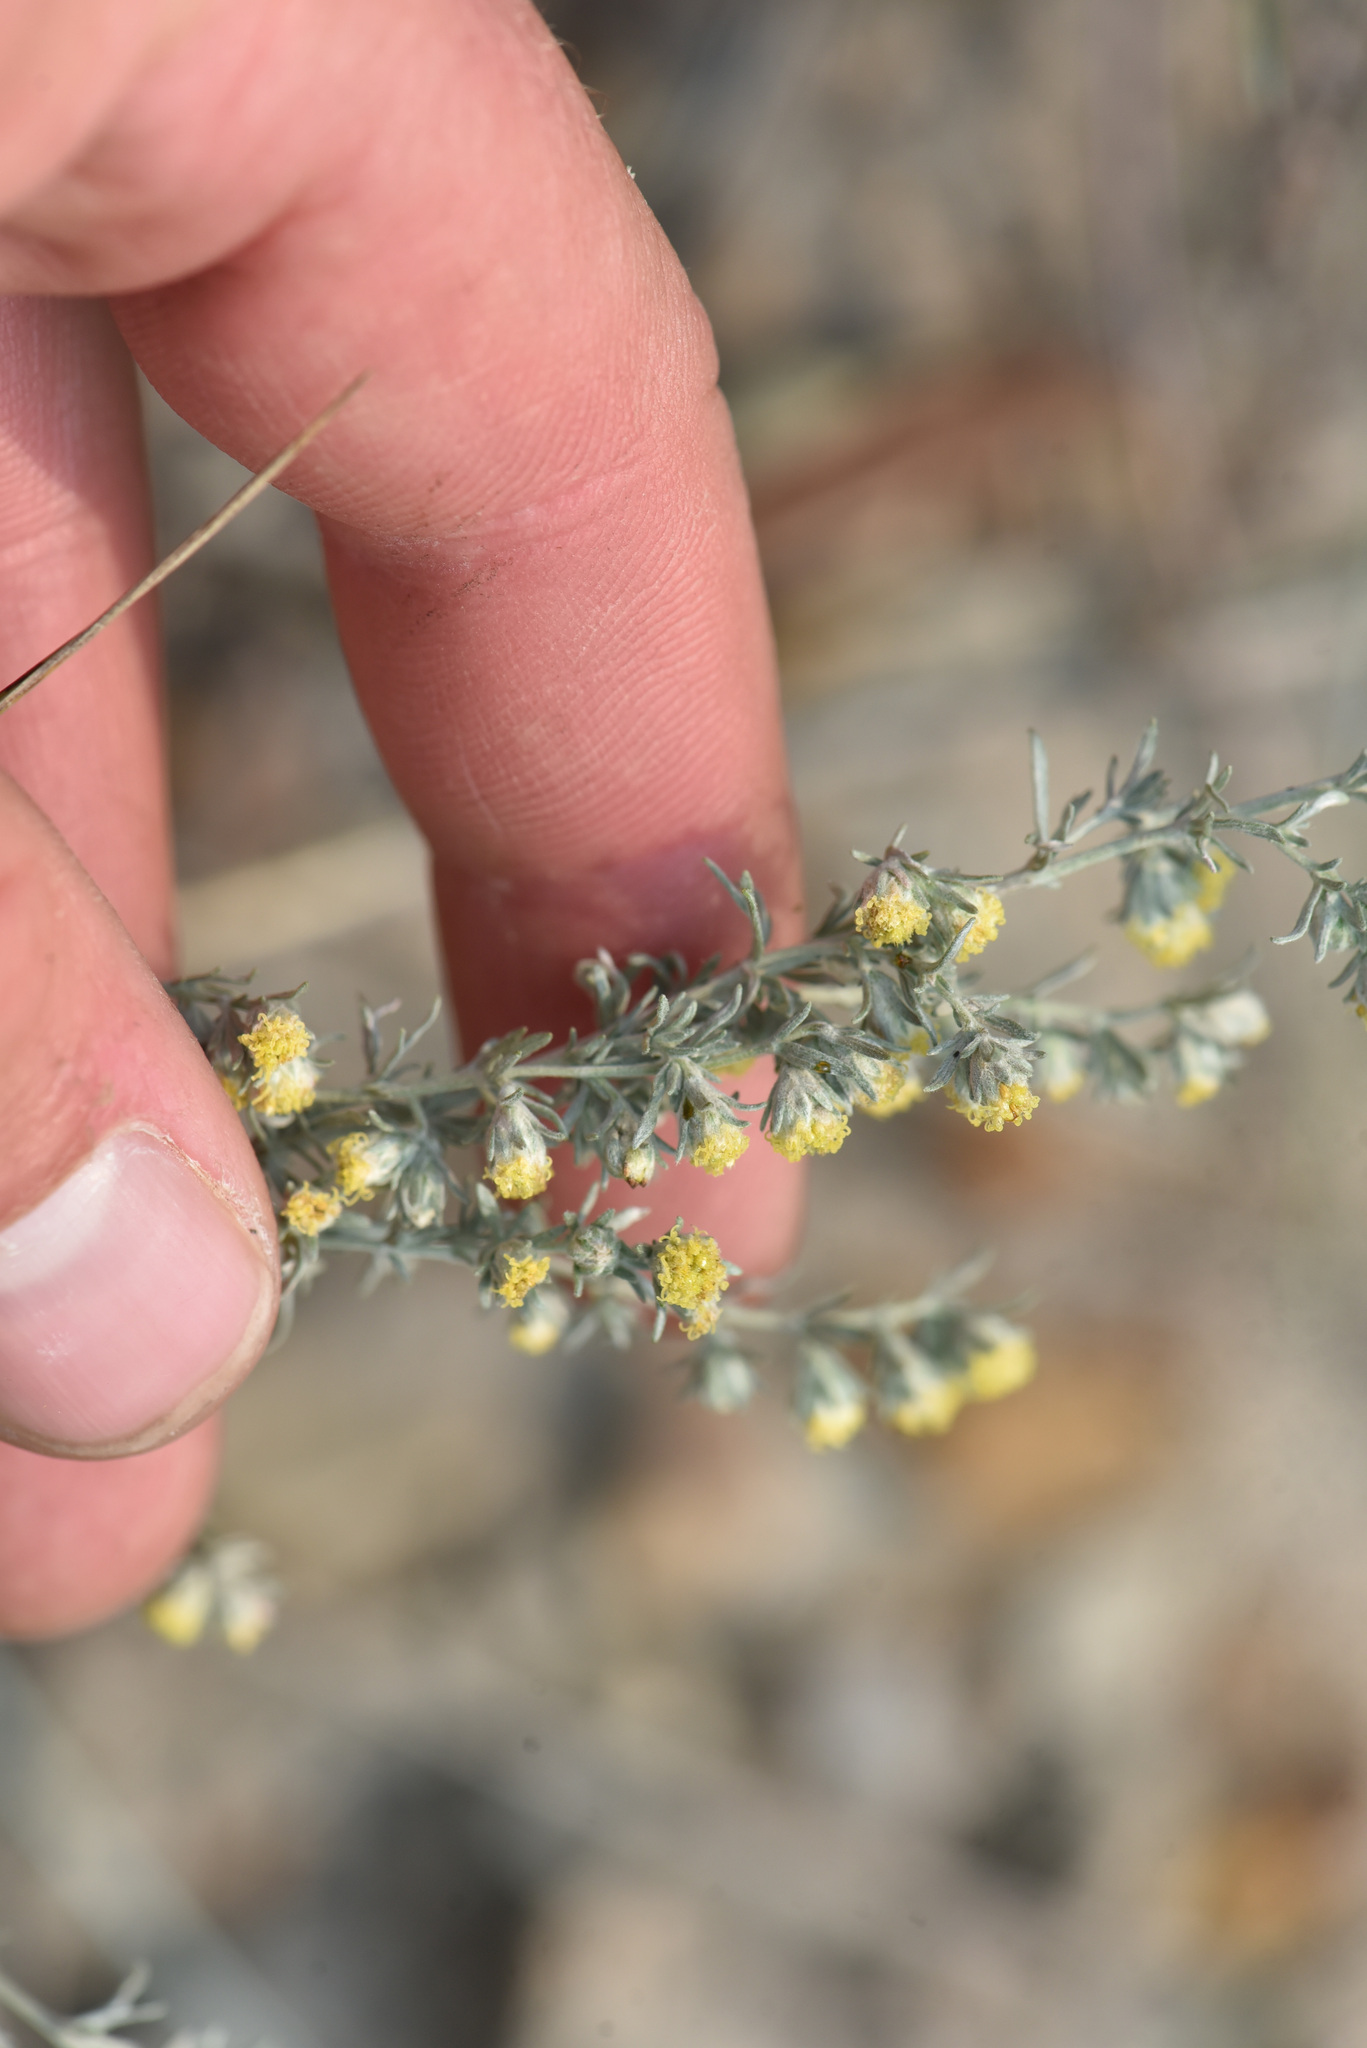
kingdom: Plantae
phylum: Tracheophyta
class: Magnoliopsida
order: Asterales
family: Asteraceae
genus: Artemisia
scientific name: Artemisia frigida
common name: Prairie sagewort
